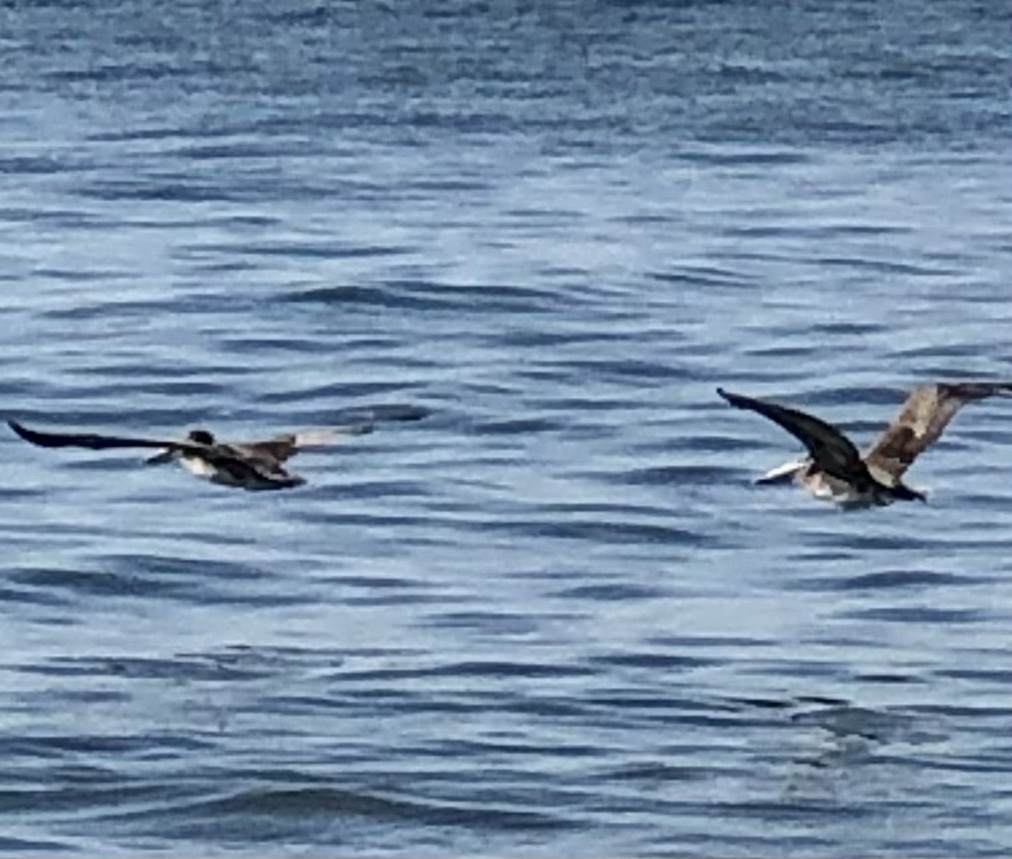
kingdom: Animalia
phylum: Chordata
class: Aves
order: Pelecaniformes
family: Pelecanidae
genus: Pelecanus
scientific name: Pelecanus occidentalis
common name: Brown pelican
